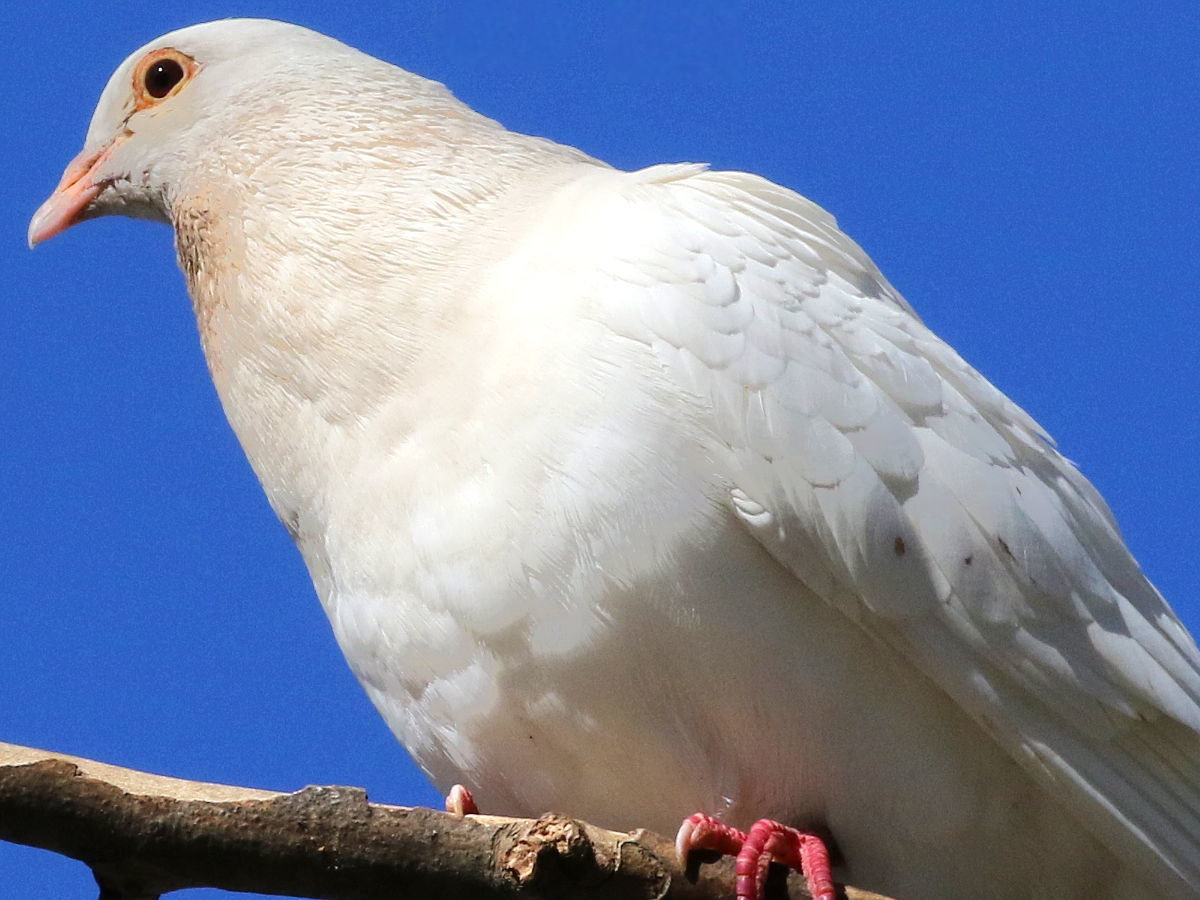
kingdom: Animalia
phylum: Chordata
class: Aves
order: Columbiformes
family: Columbidae
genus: Columba
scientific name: Columba livia
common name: Rock pigeon
